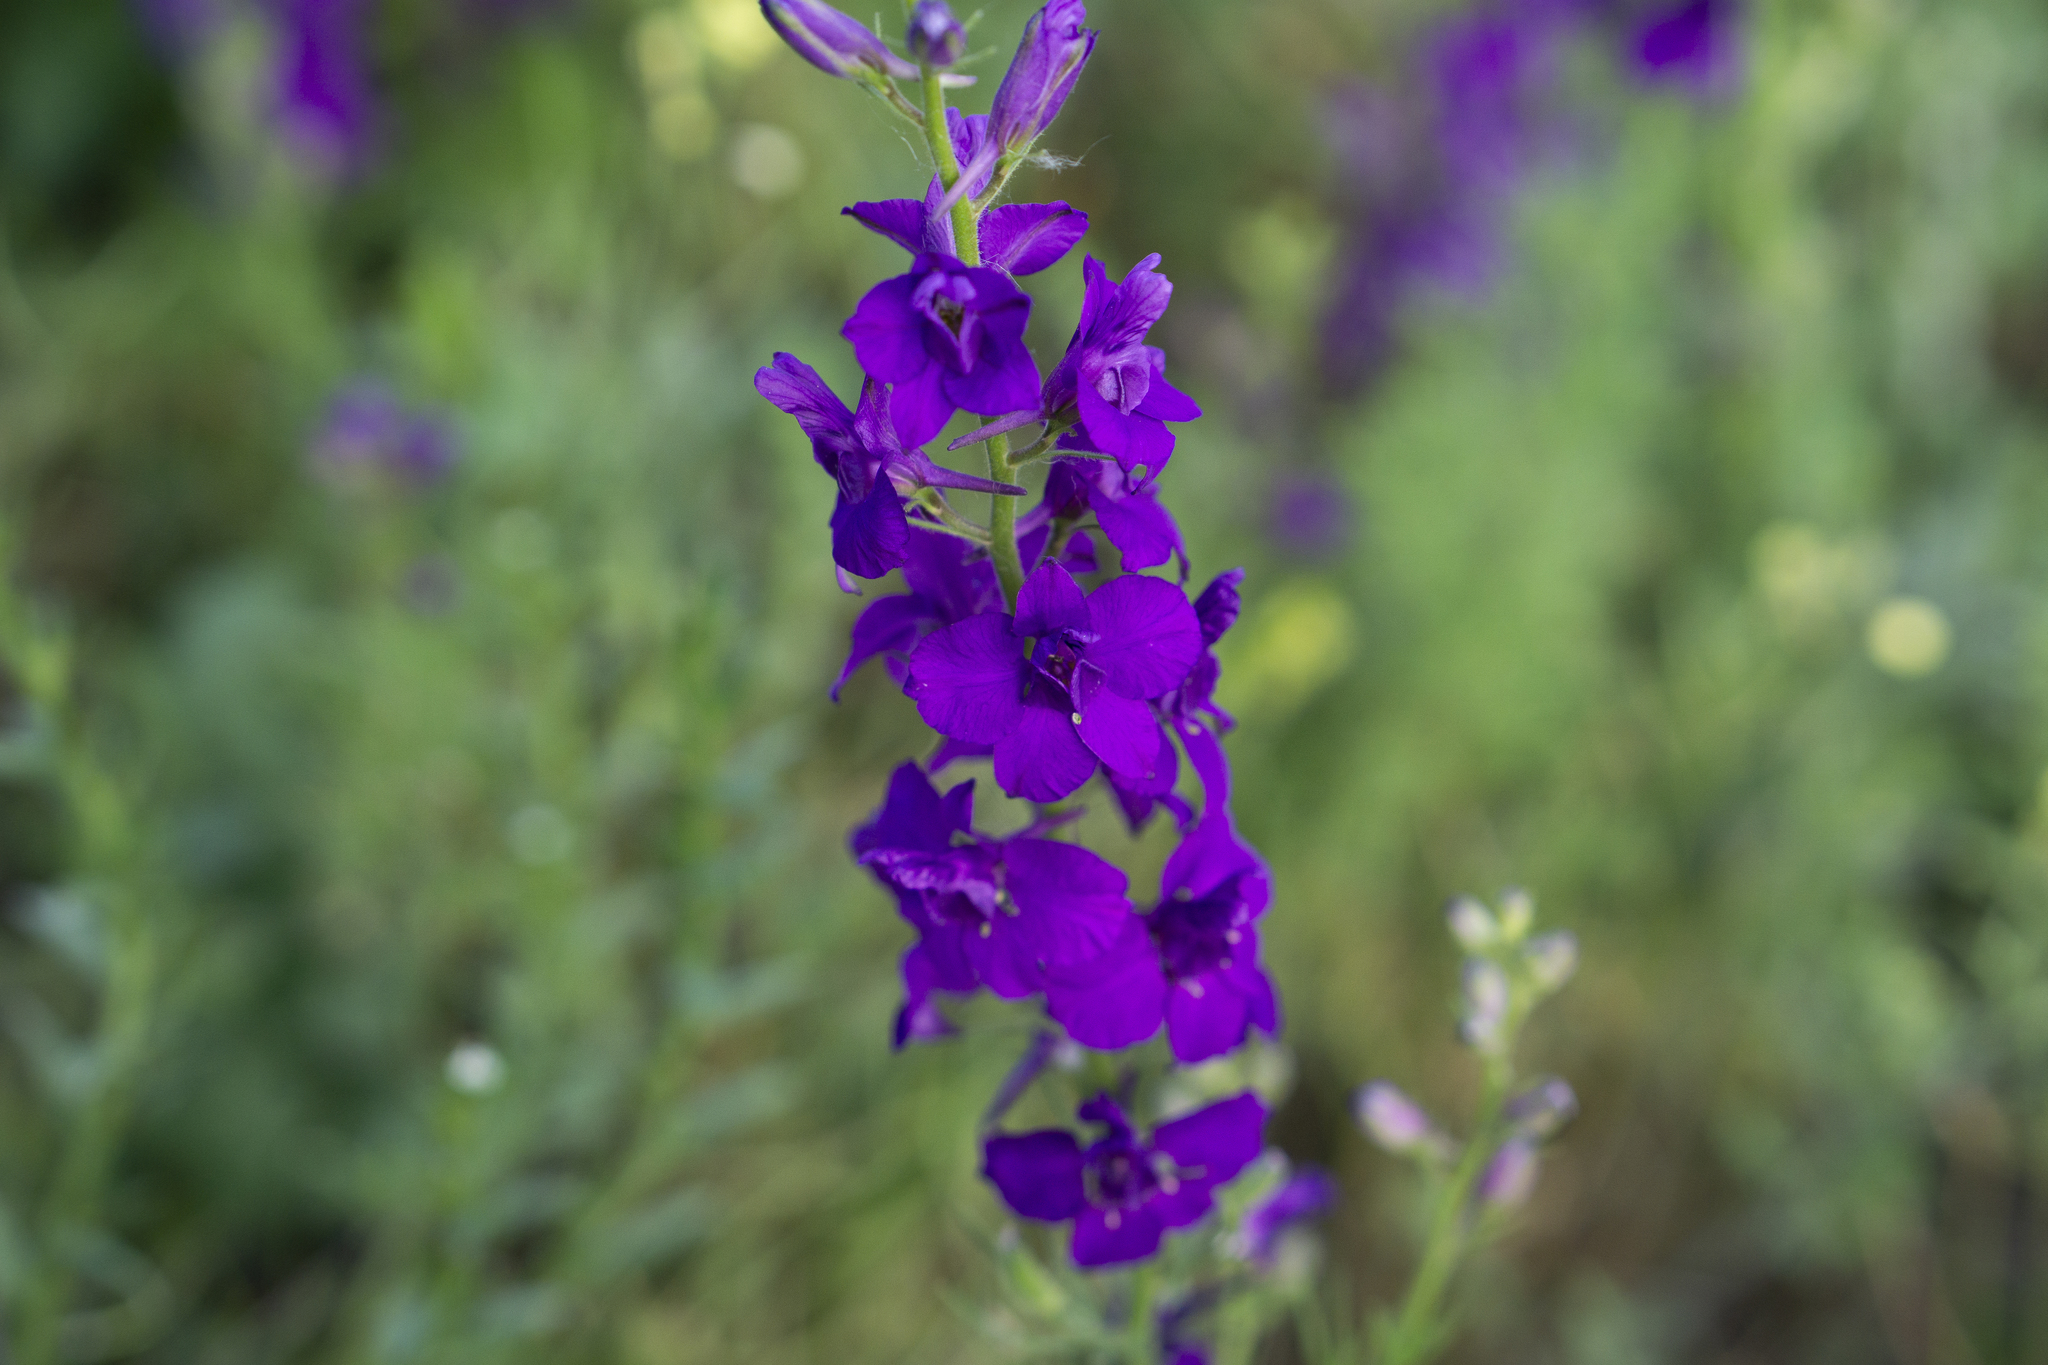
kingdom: Plantae
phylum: Tracheophyta
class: Magnoliopsida
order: Ranunculales
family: Ranunculaceae
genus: Delphinium
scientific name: Delphinium ajacis
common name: Doubtful knight's-spur
